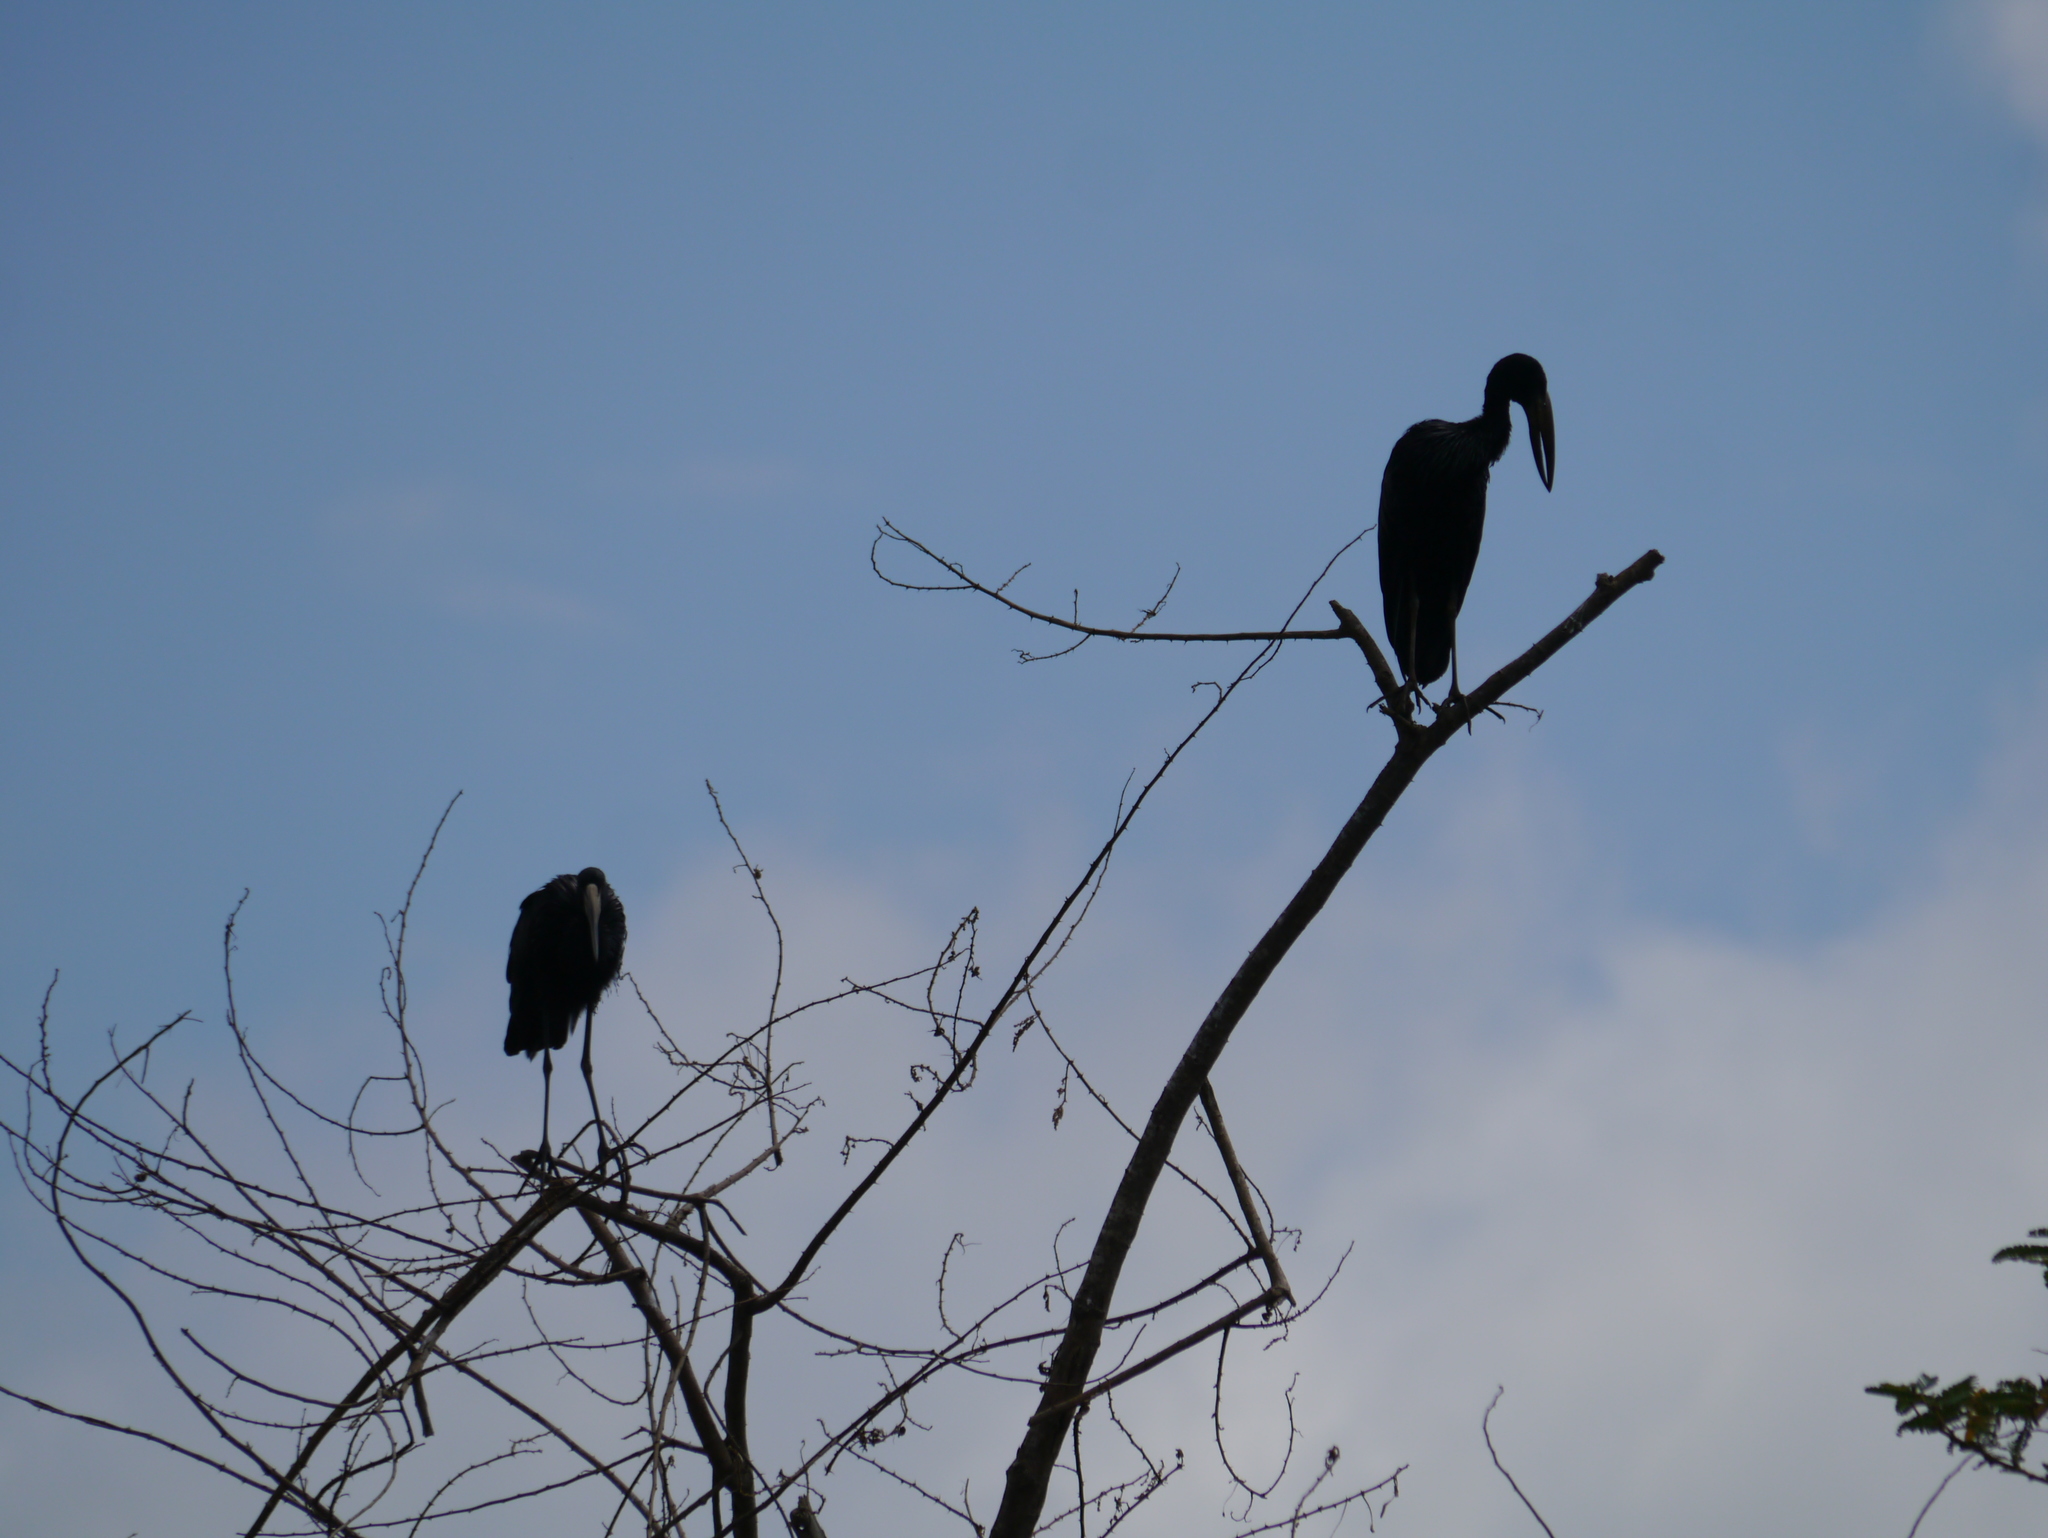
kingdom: Animalia
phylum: Chordata
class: Aves
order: Ciconiiformes
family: Ciconiidae
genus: Anastomus
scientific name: Anastomus lamelligerus
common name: African openbill
